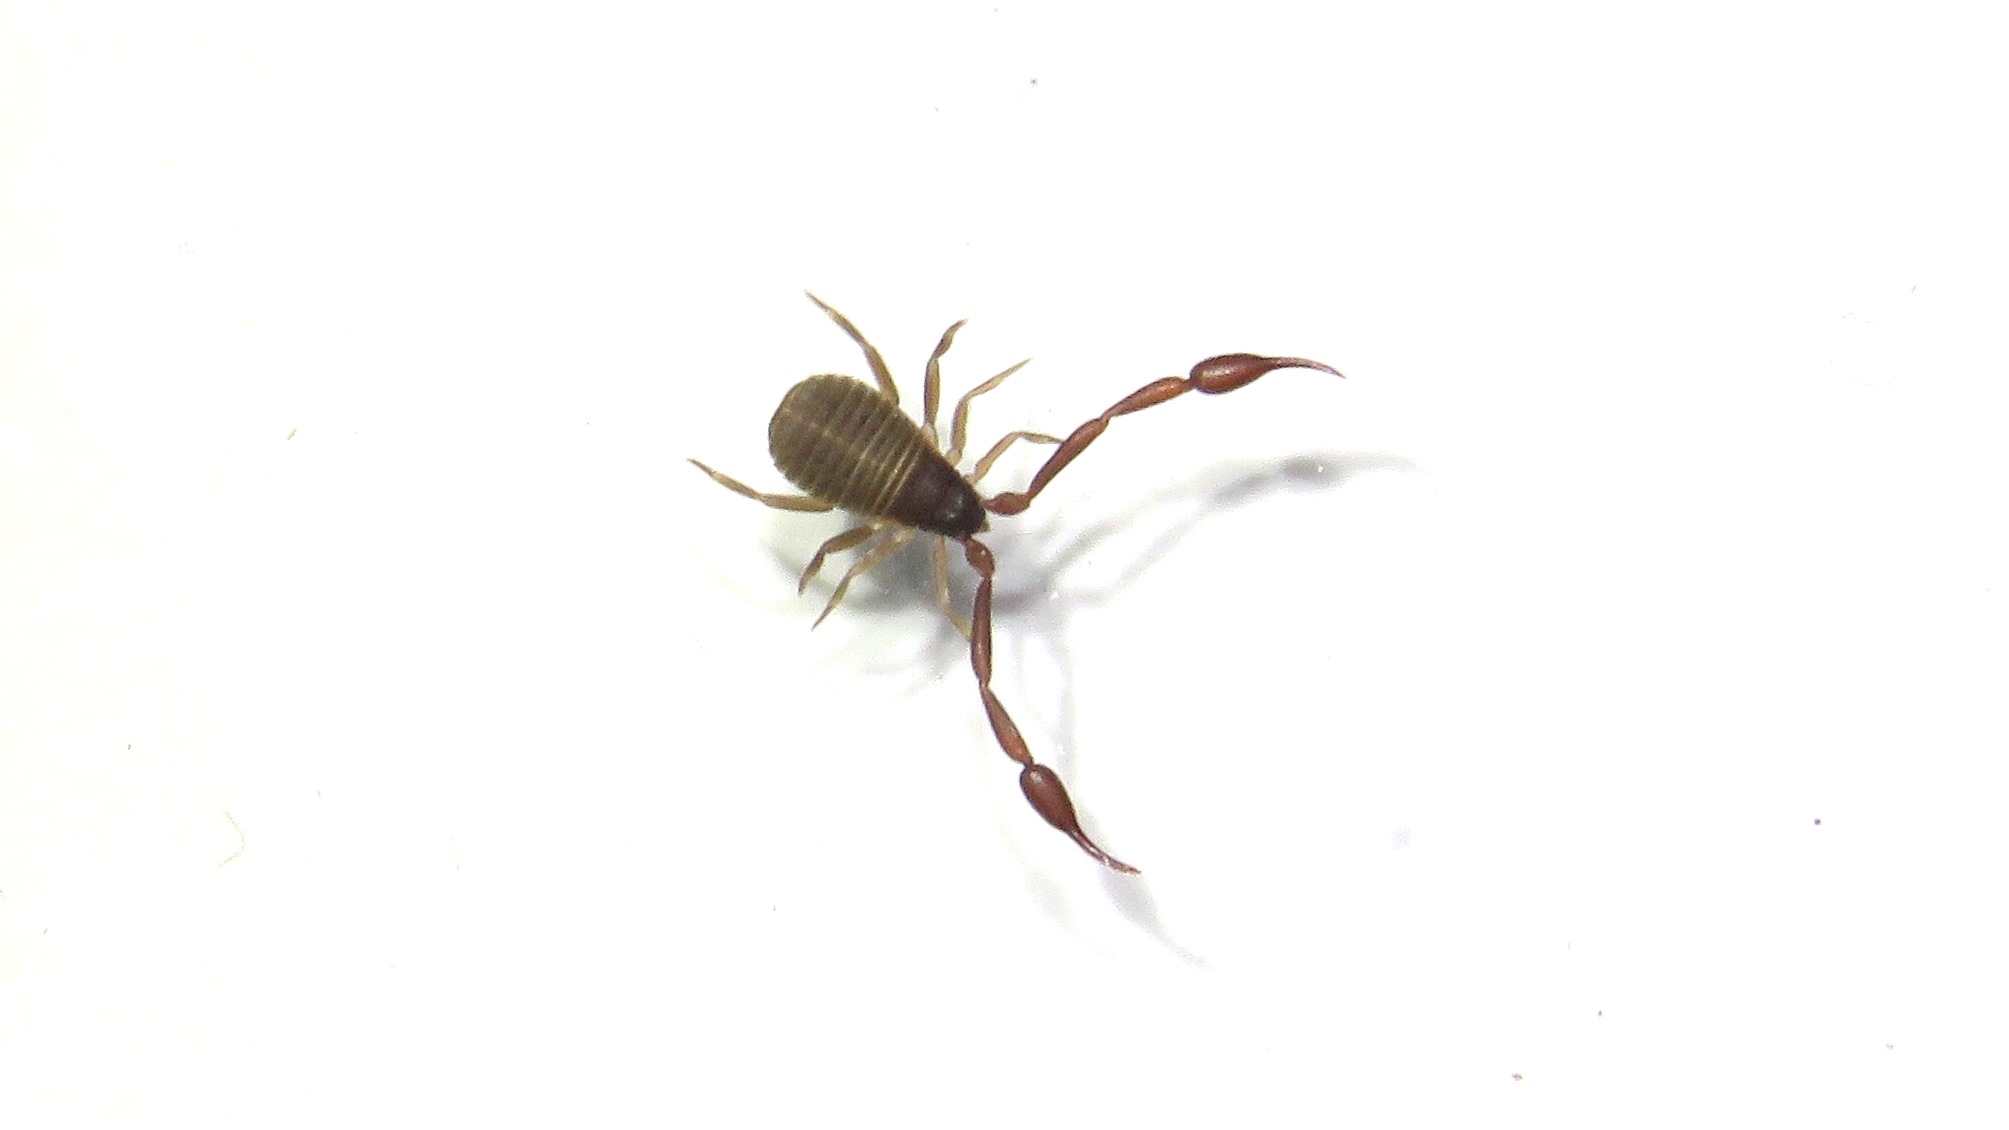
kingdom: Animalia
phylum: Arthropoda
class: Arachnida
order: Pseudoscorpiones
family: Cheliferidae
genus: Chelifer
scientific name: Chelifer cancroides
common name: House false-scorpion
